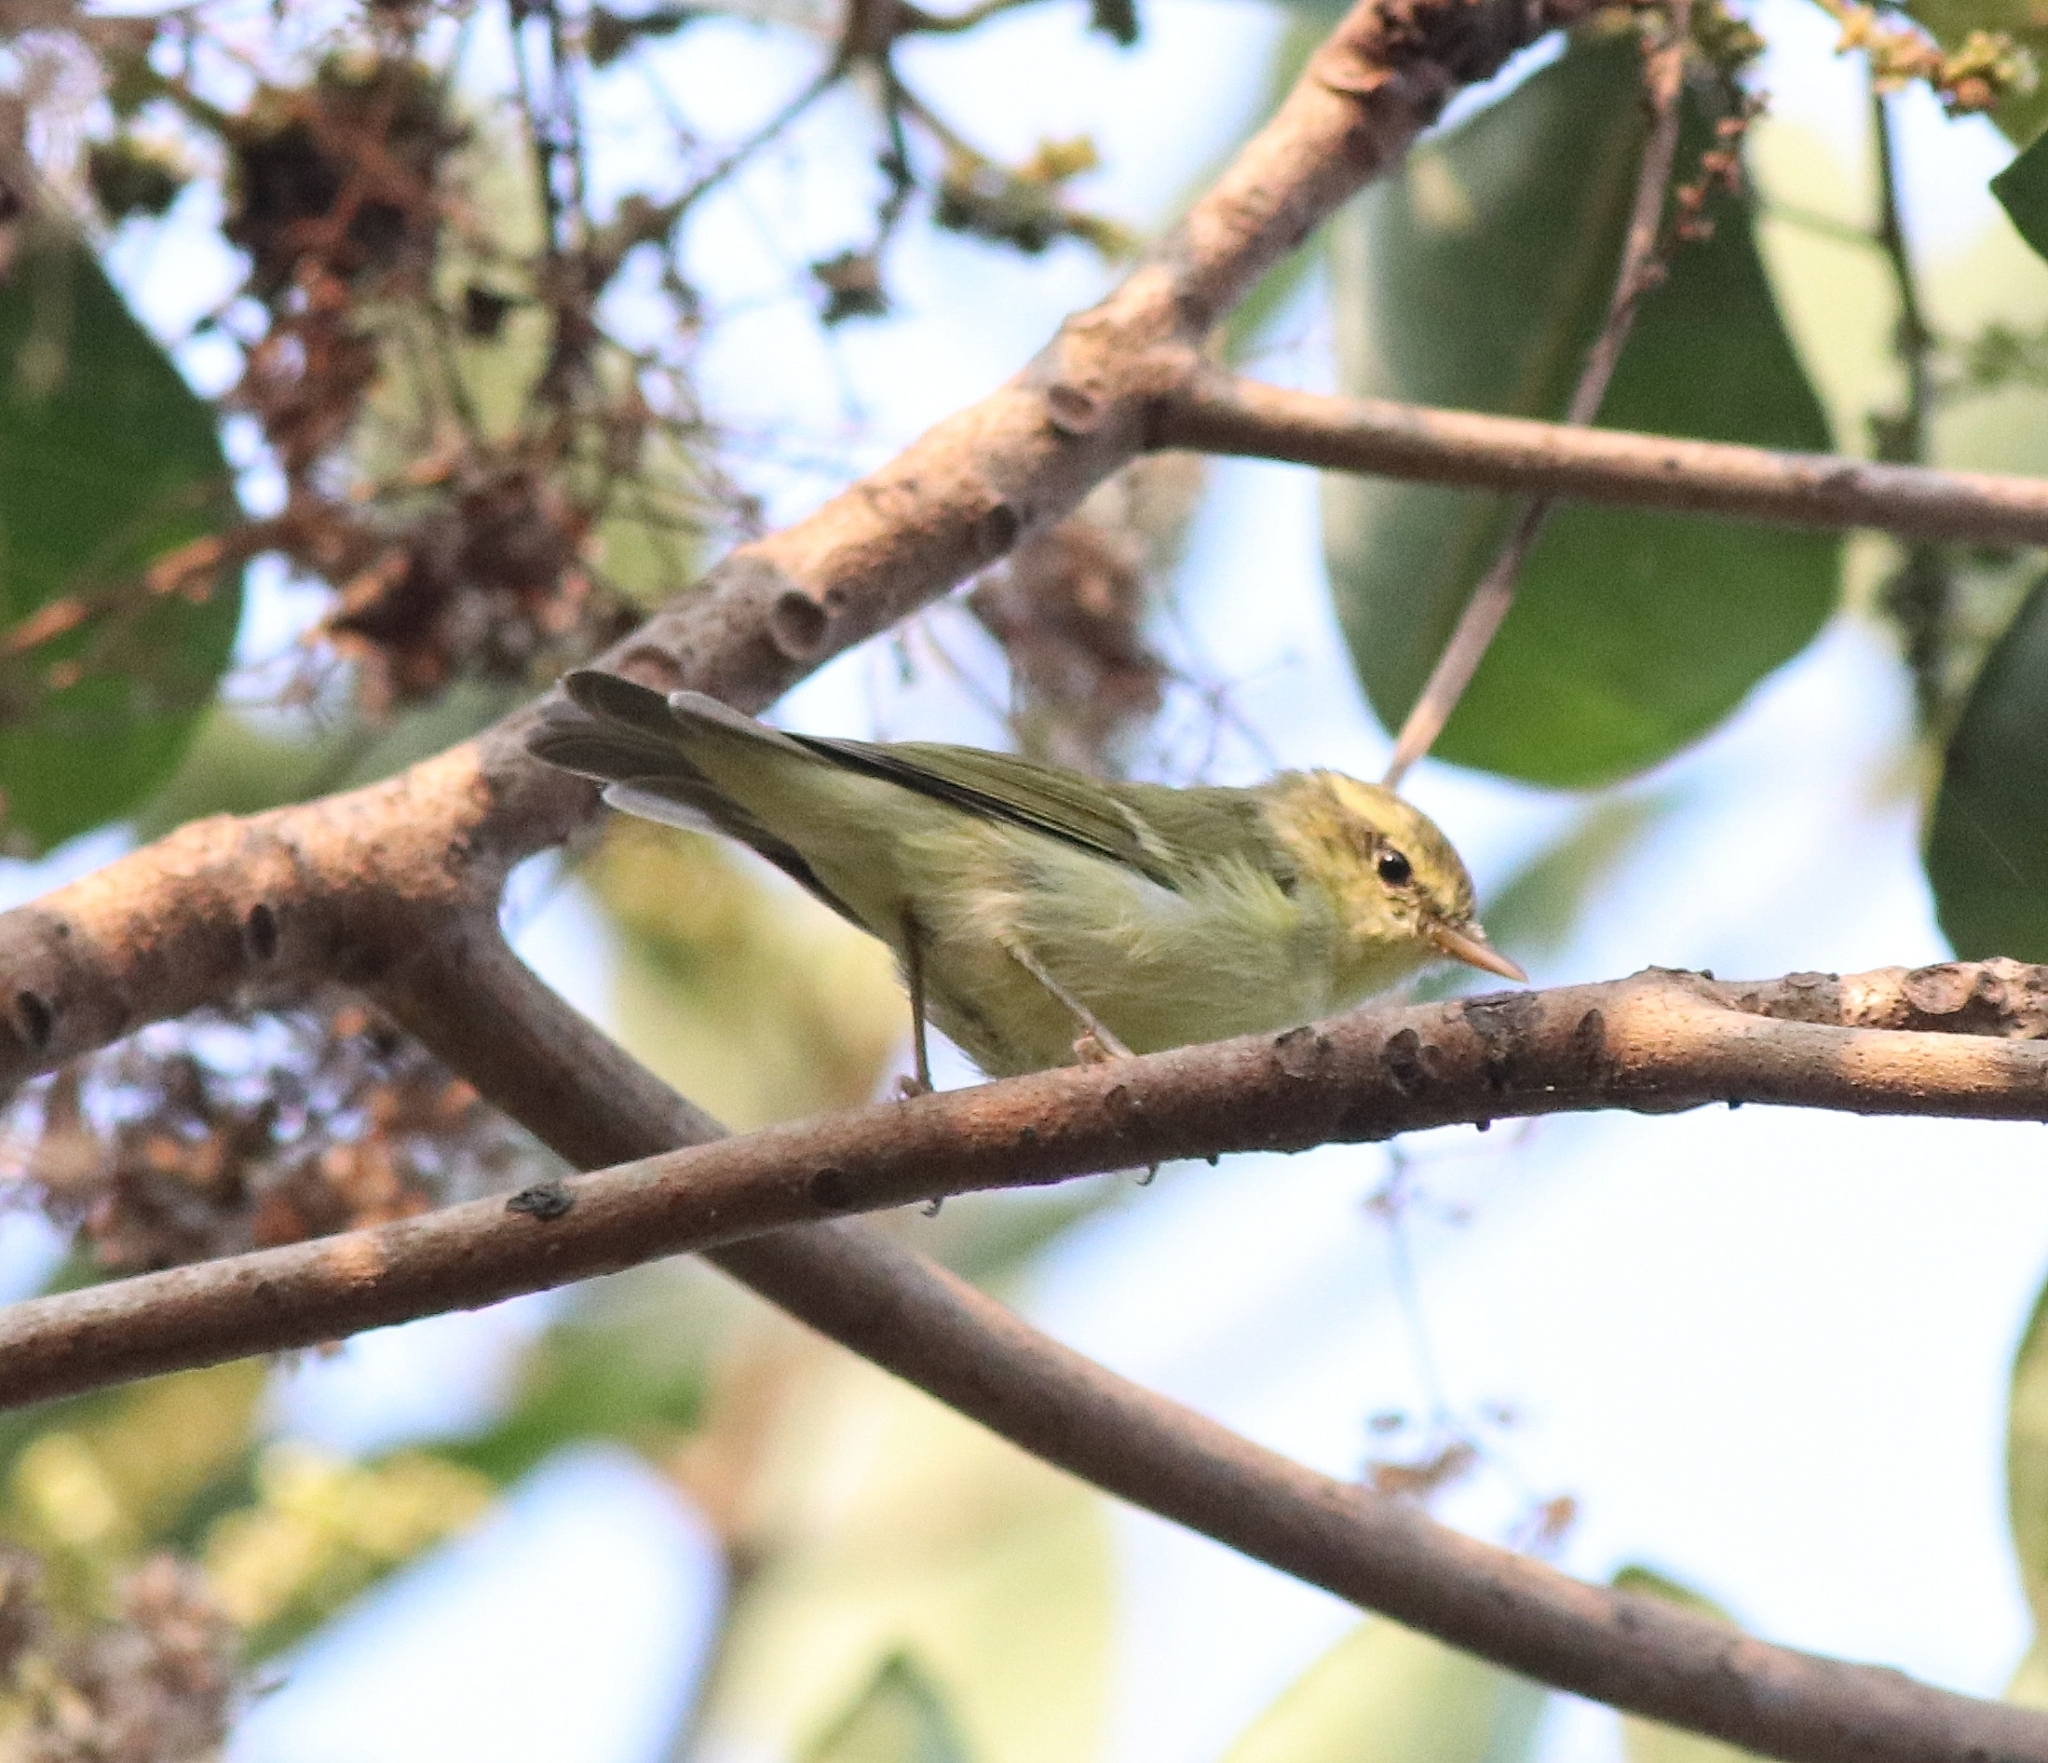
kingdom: Animalia
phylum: Chordata
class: Aves
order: Passeriformes
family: Phylloscopidae
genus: Phylloscopus
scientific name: Phylloscopus nitidus
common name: Green warbler
